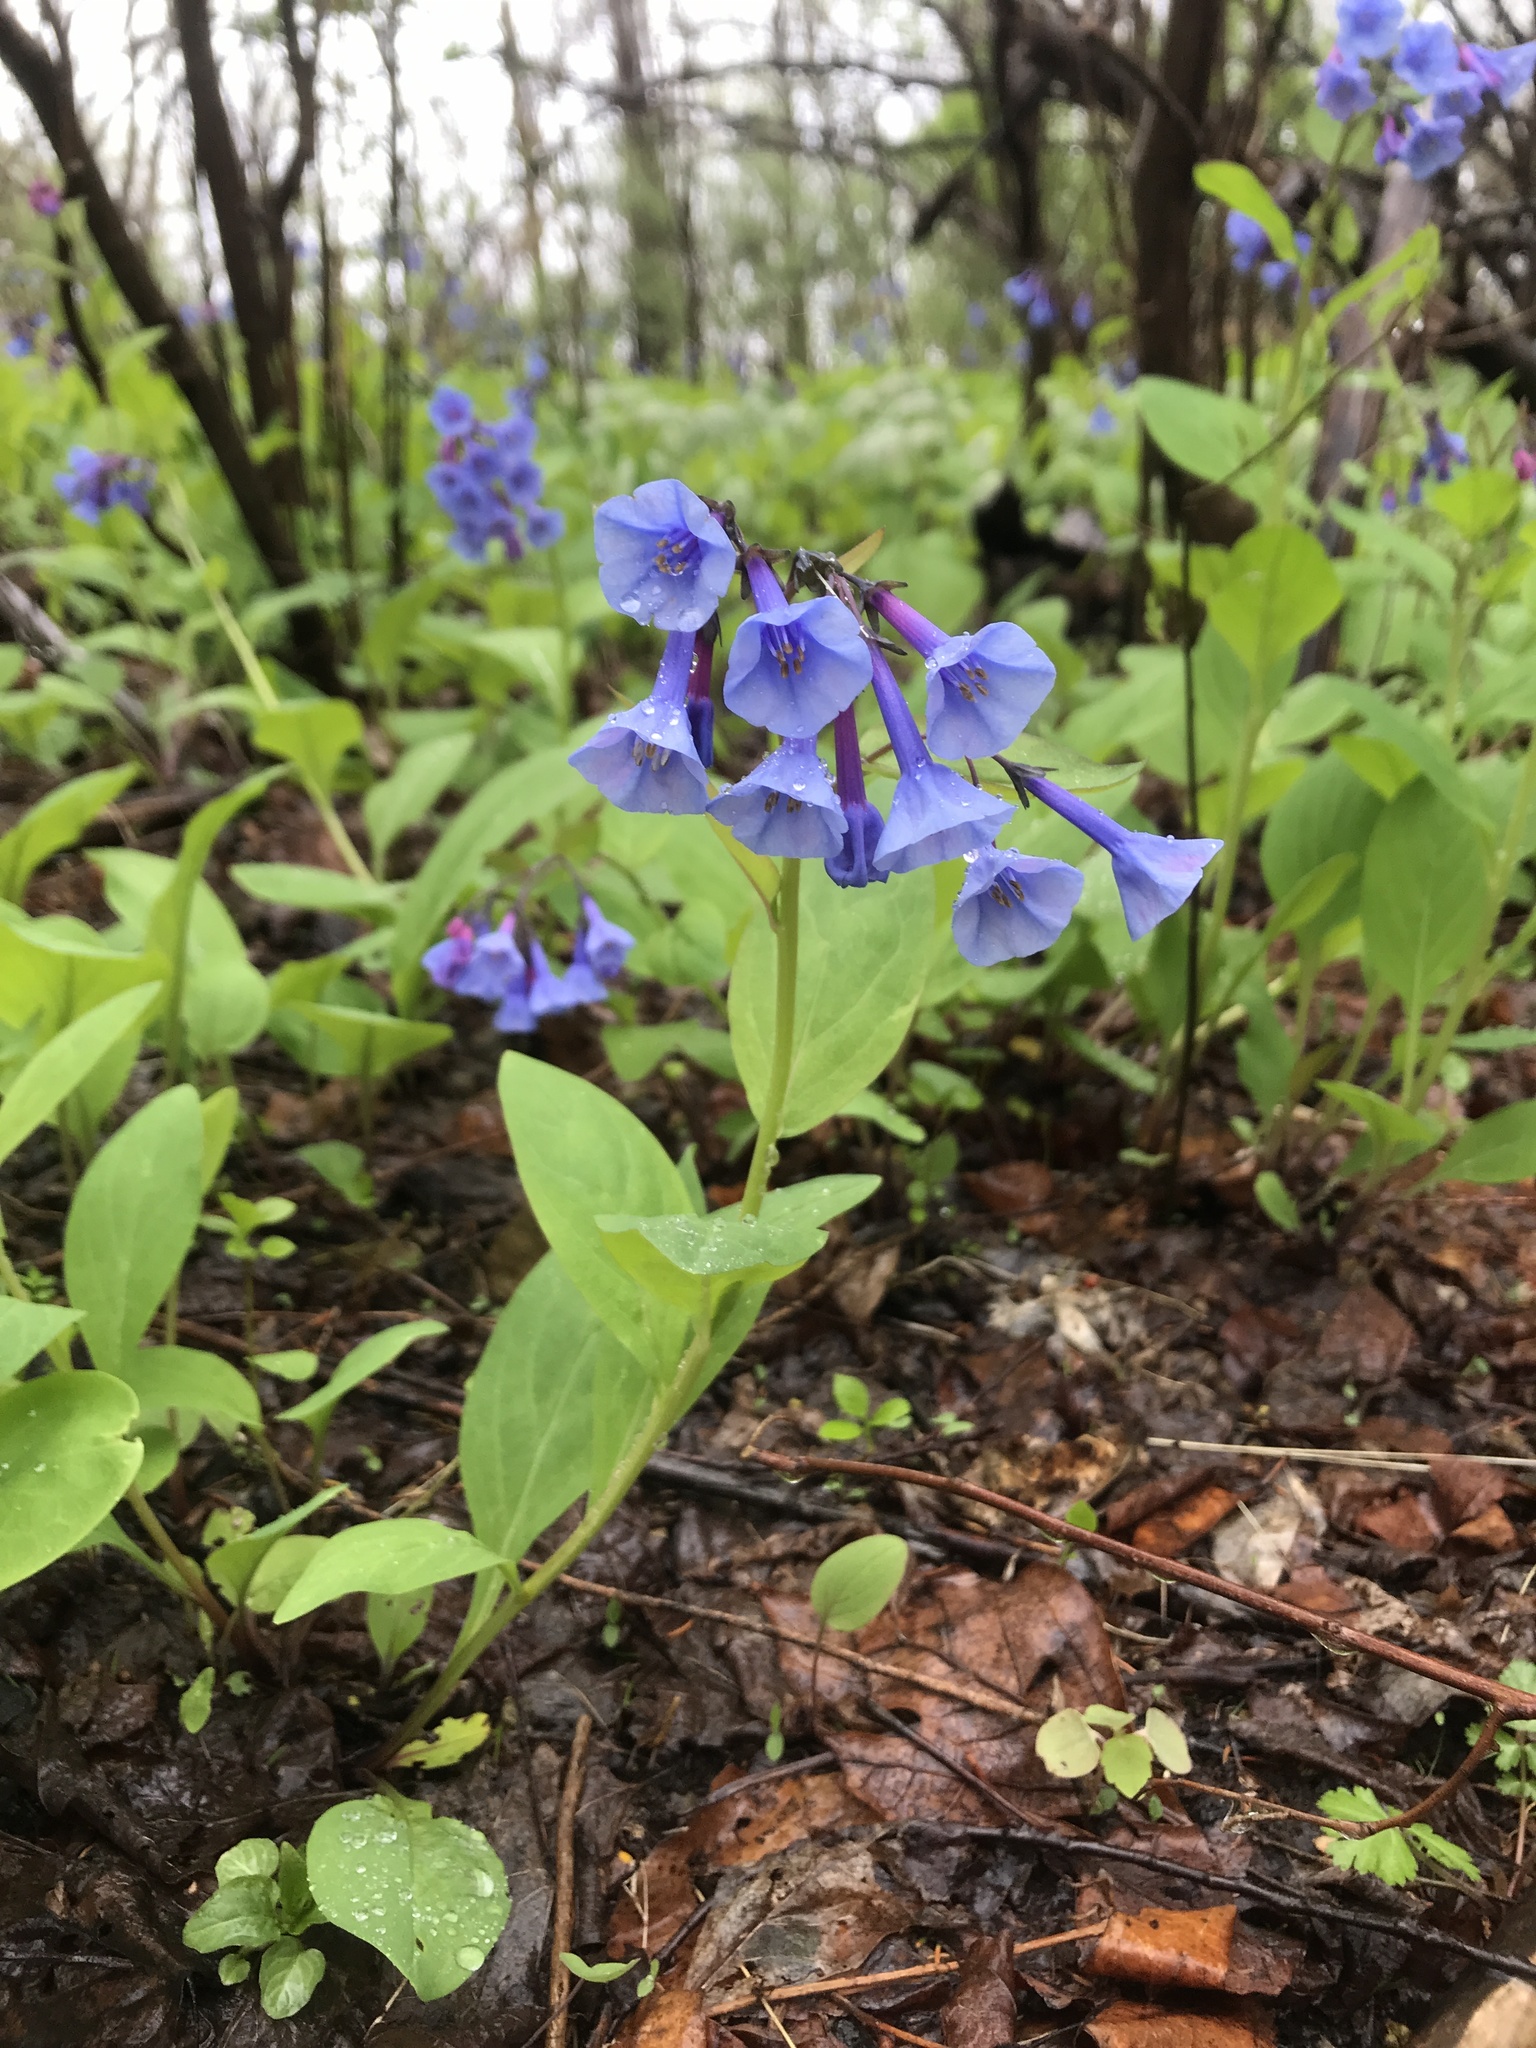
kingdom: Plantae
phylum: Tracheophyta
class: Magnoliopsida
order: Boraginales
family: Boraginaceae
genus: Mertensia
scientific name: Mertensia virginica
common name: Virginia bluebells
